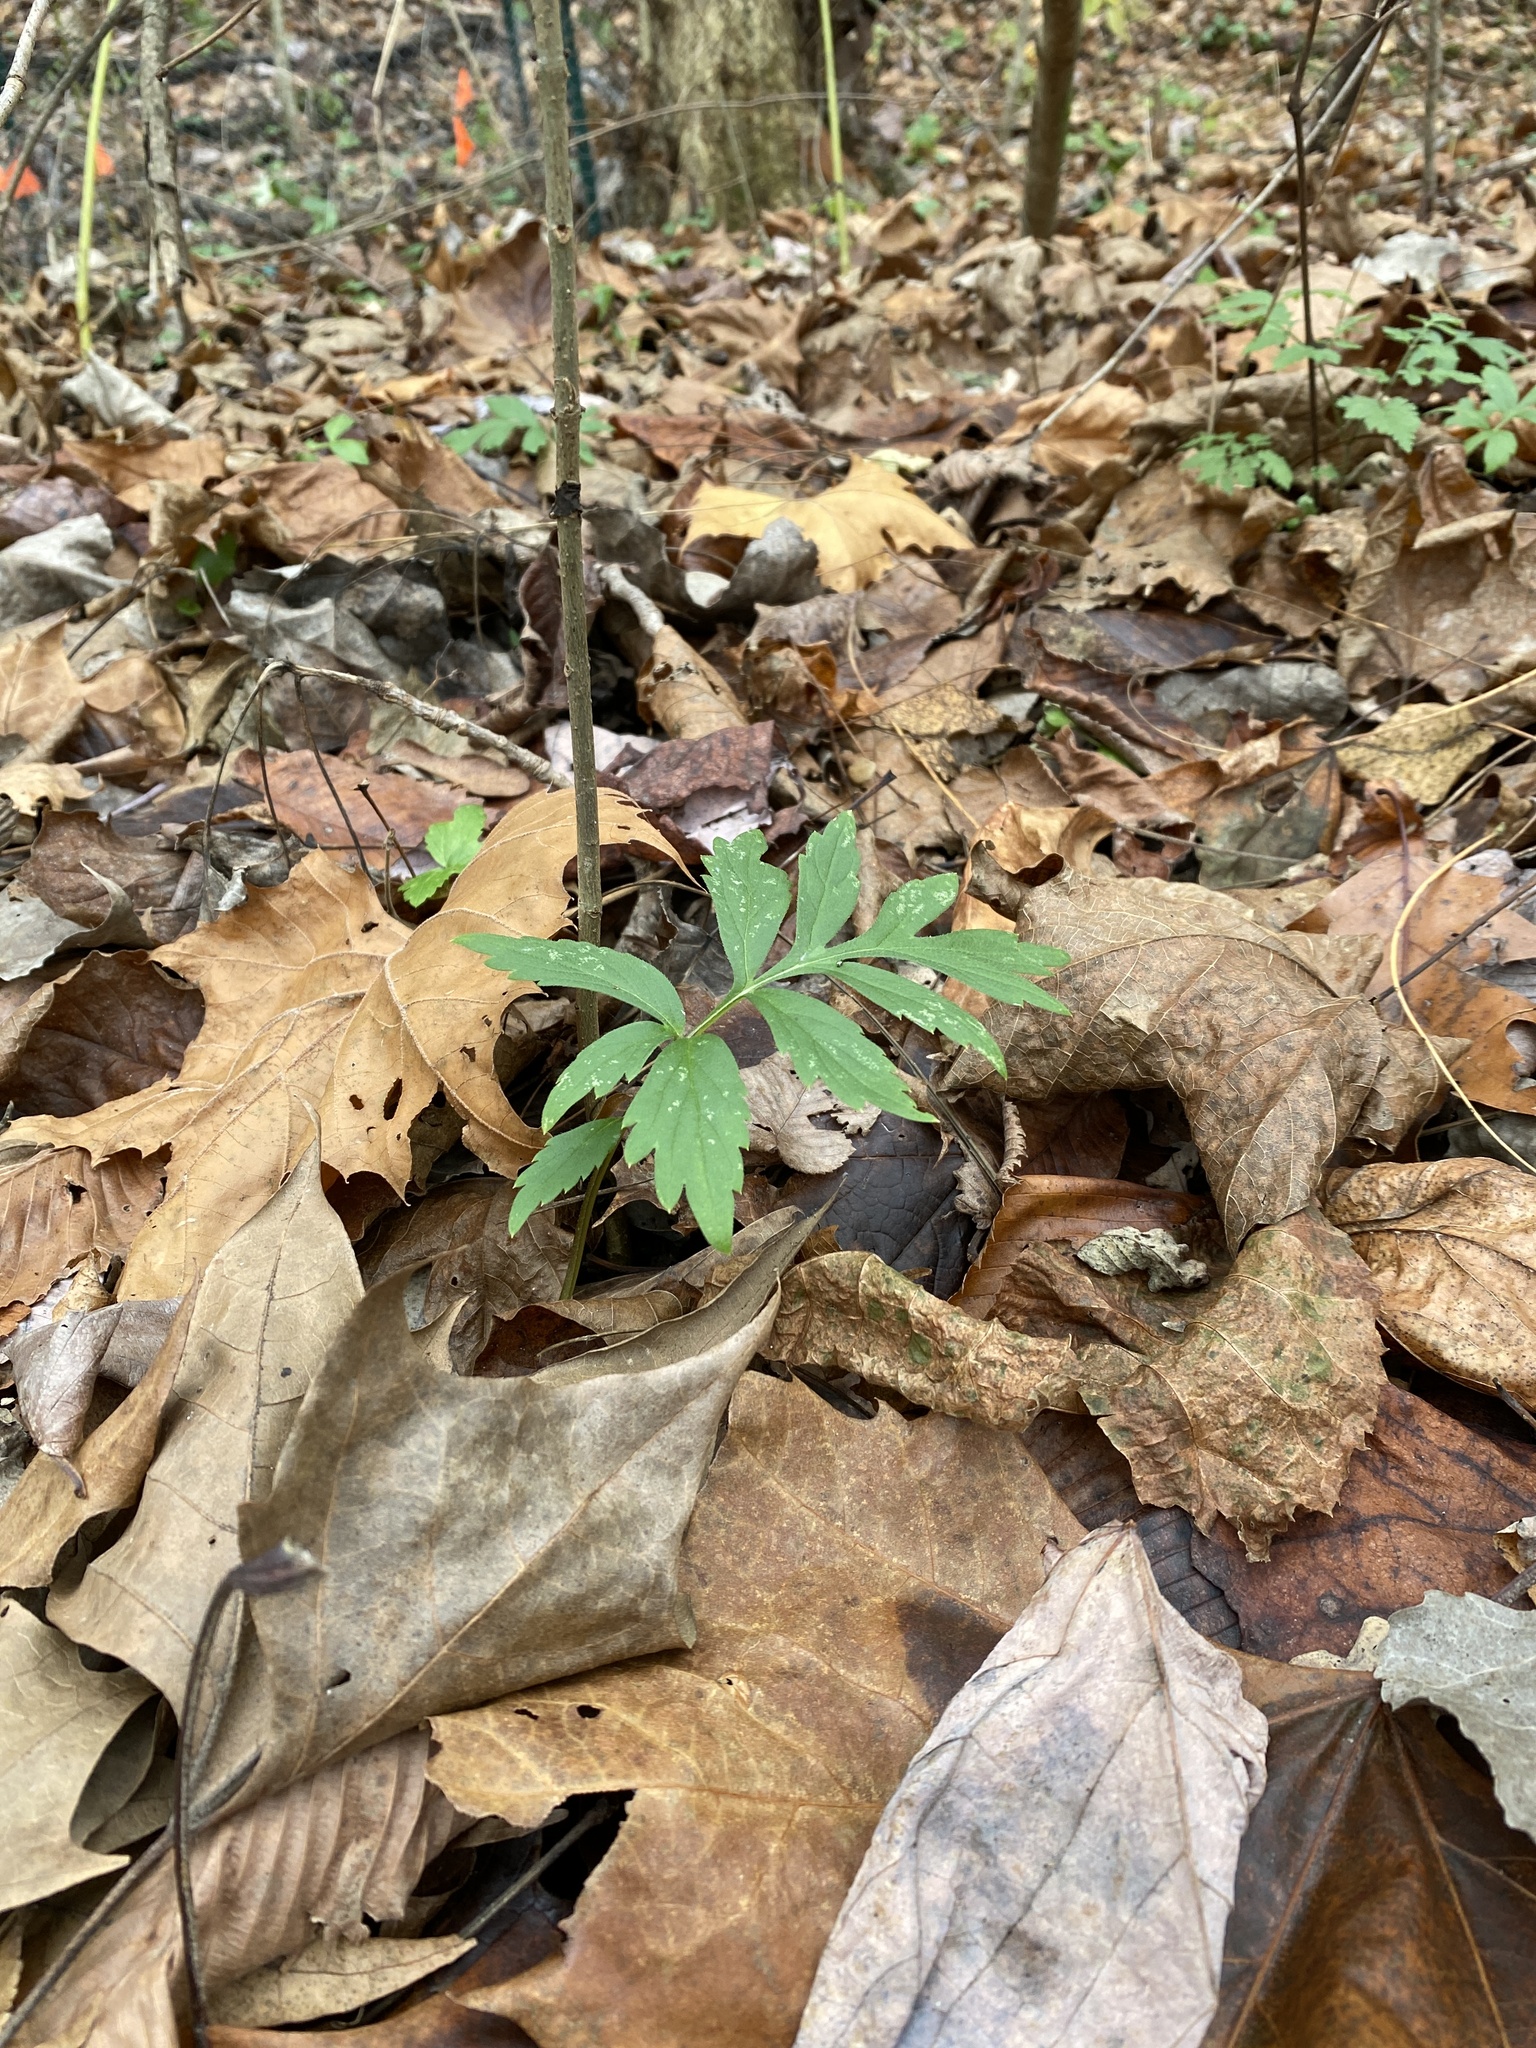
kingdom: Plantae
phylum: Tracheophyta
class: Magnoliopsida
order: Boraginales
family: Hydrophyllaceae
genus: Hydrophyllum
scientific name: Hydrophyllum virginianum
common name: Virginia waterleaf
